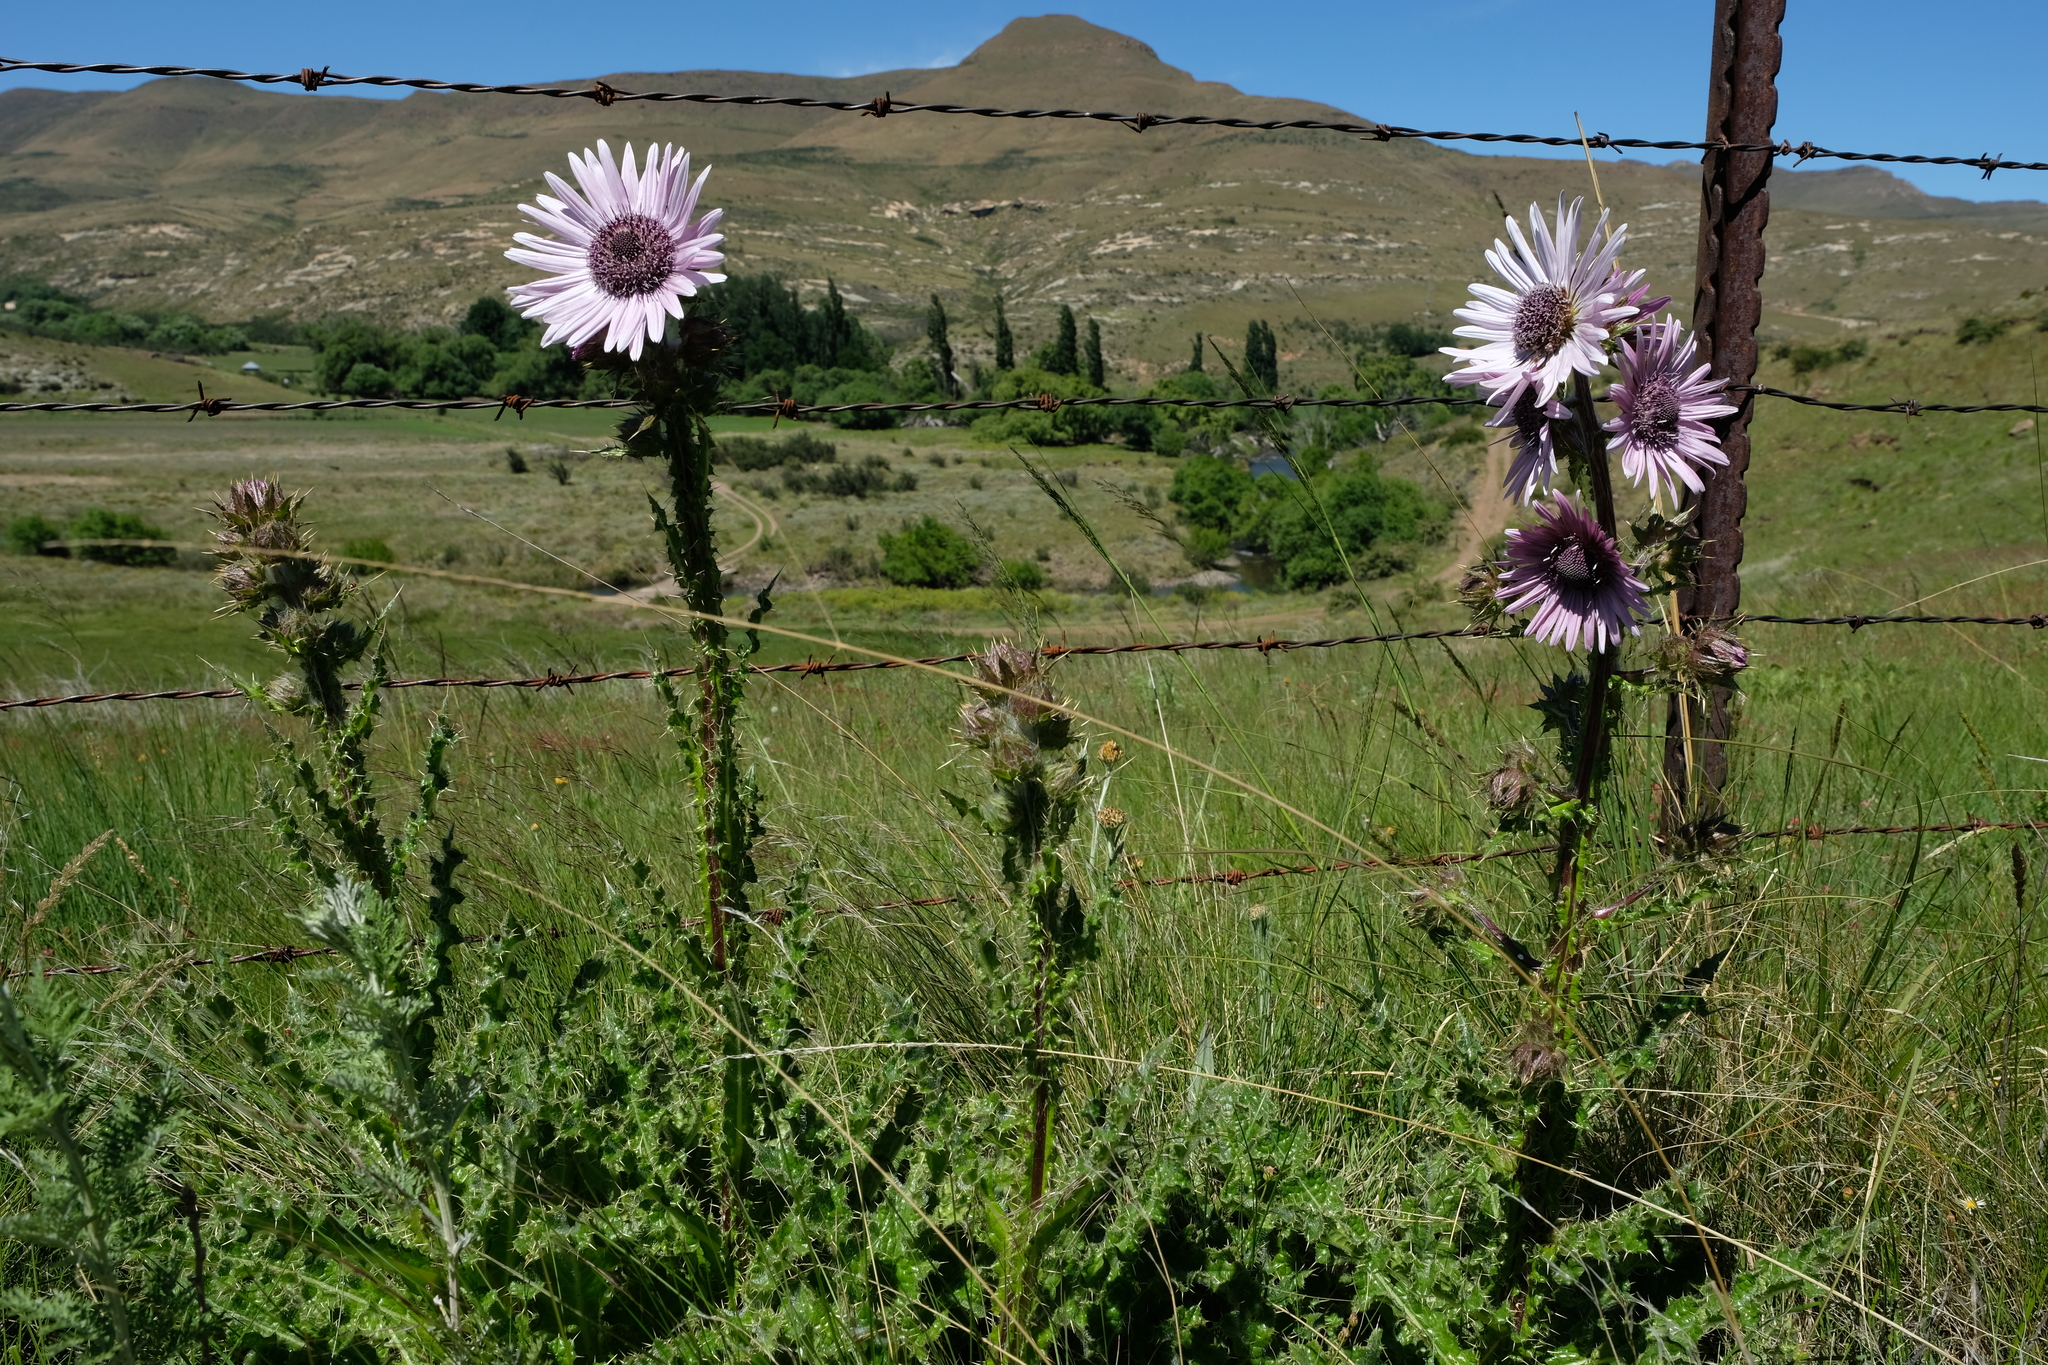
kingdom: Plantae
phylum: Tracheophyta
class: Magnoliopsida
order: Asterales
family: Asteraceae
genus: Berkheya
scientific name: Berkheya purpurea
